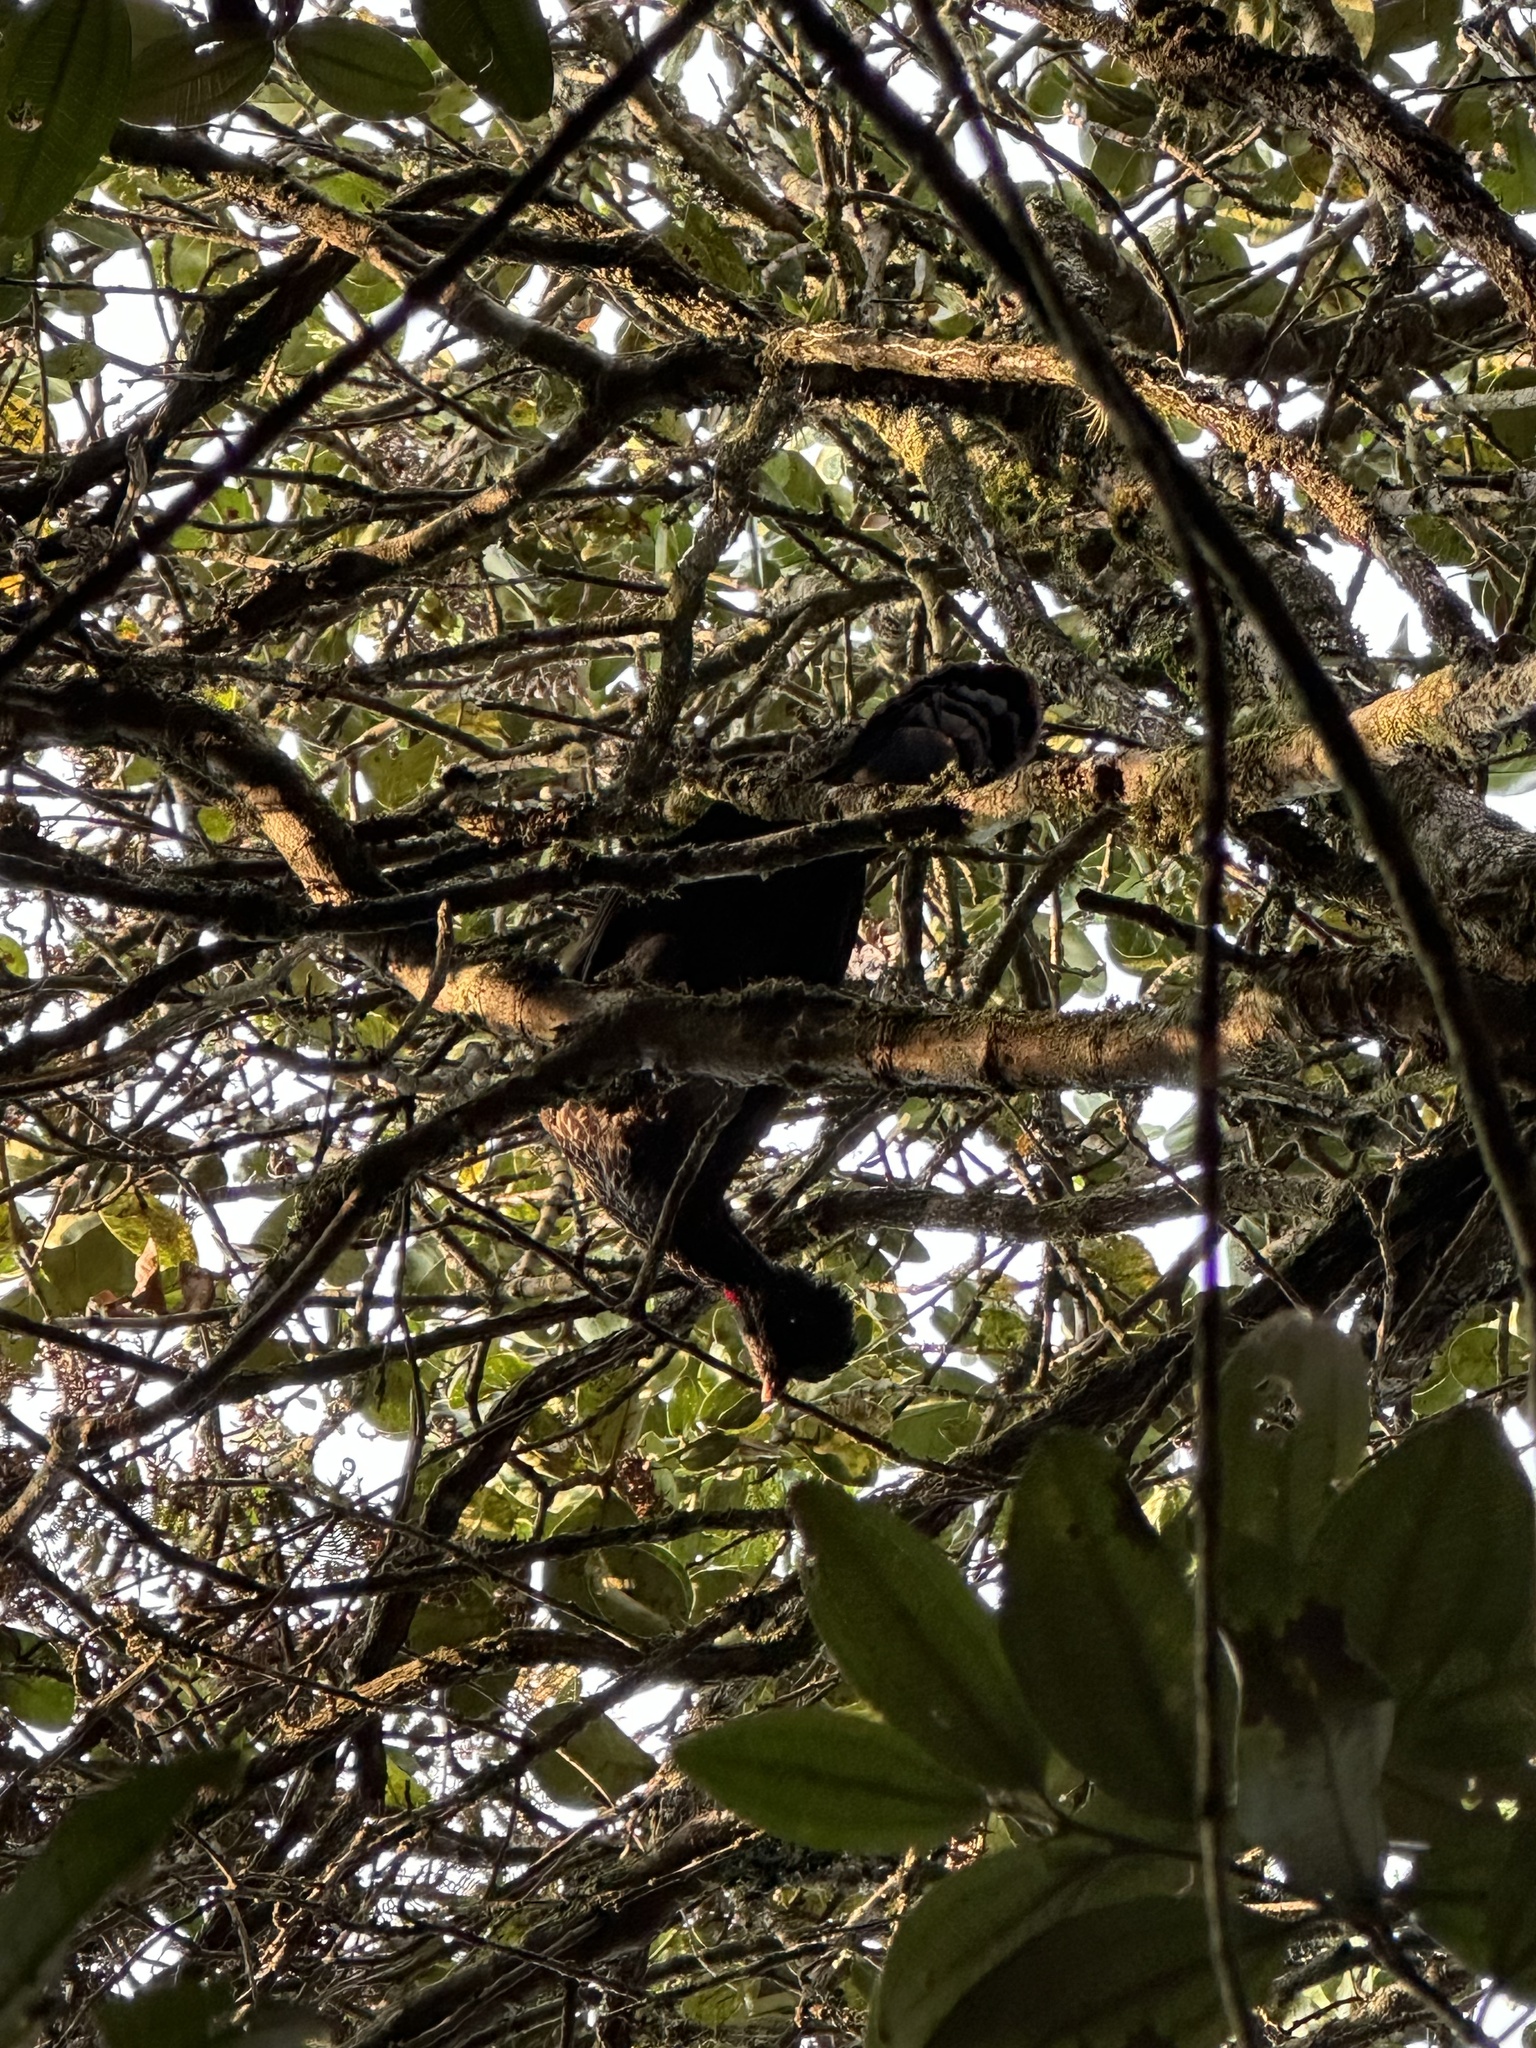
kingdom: Animalia
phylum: Chordata
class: Aves
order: Galliformes
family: Cracidae
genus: Penelope
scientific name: Penelope montagnii
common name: Andean guan
